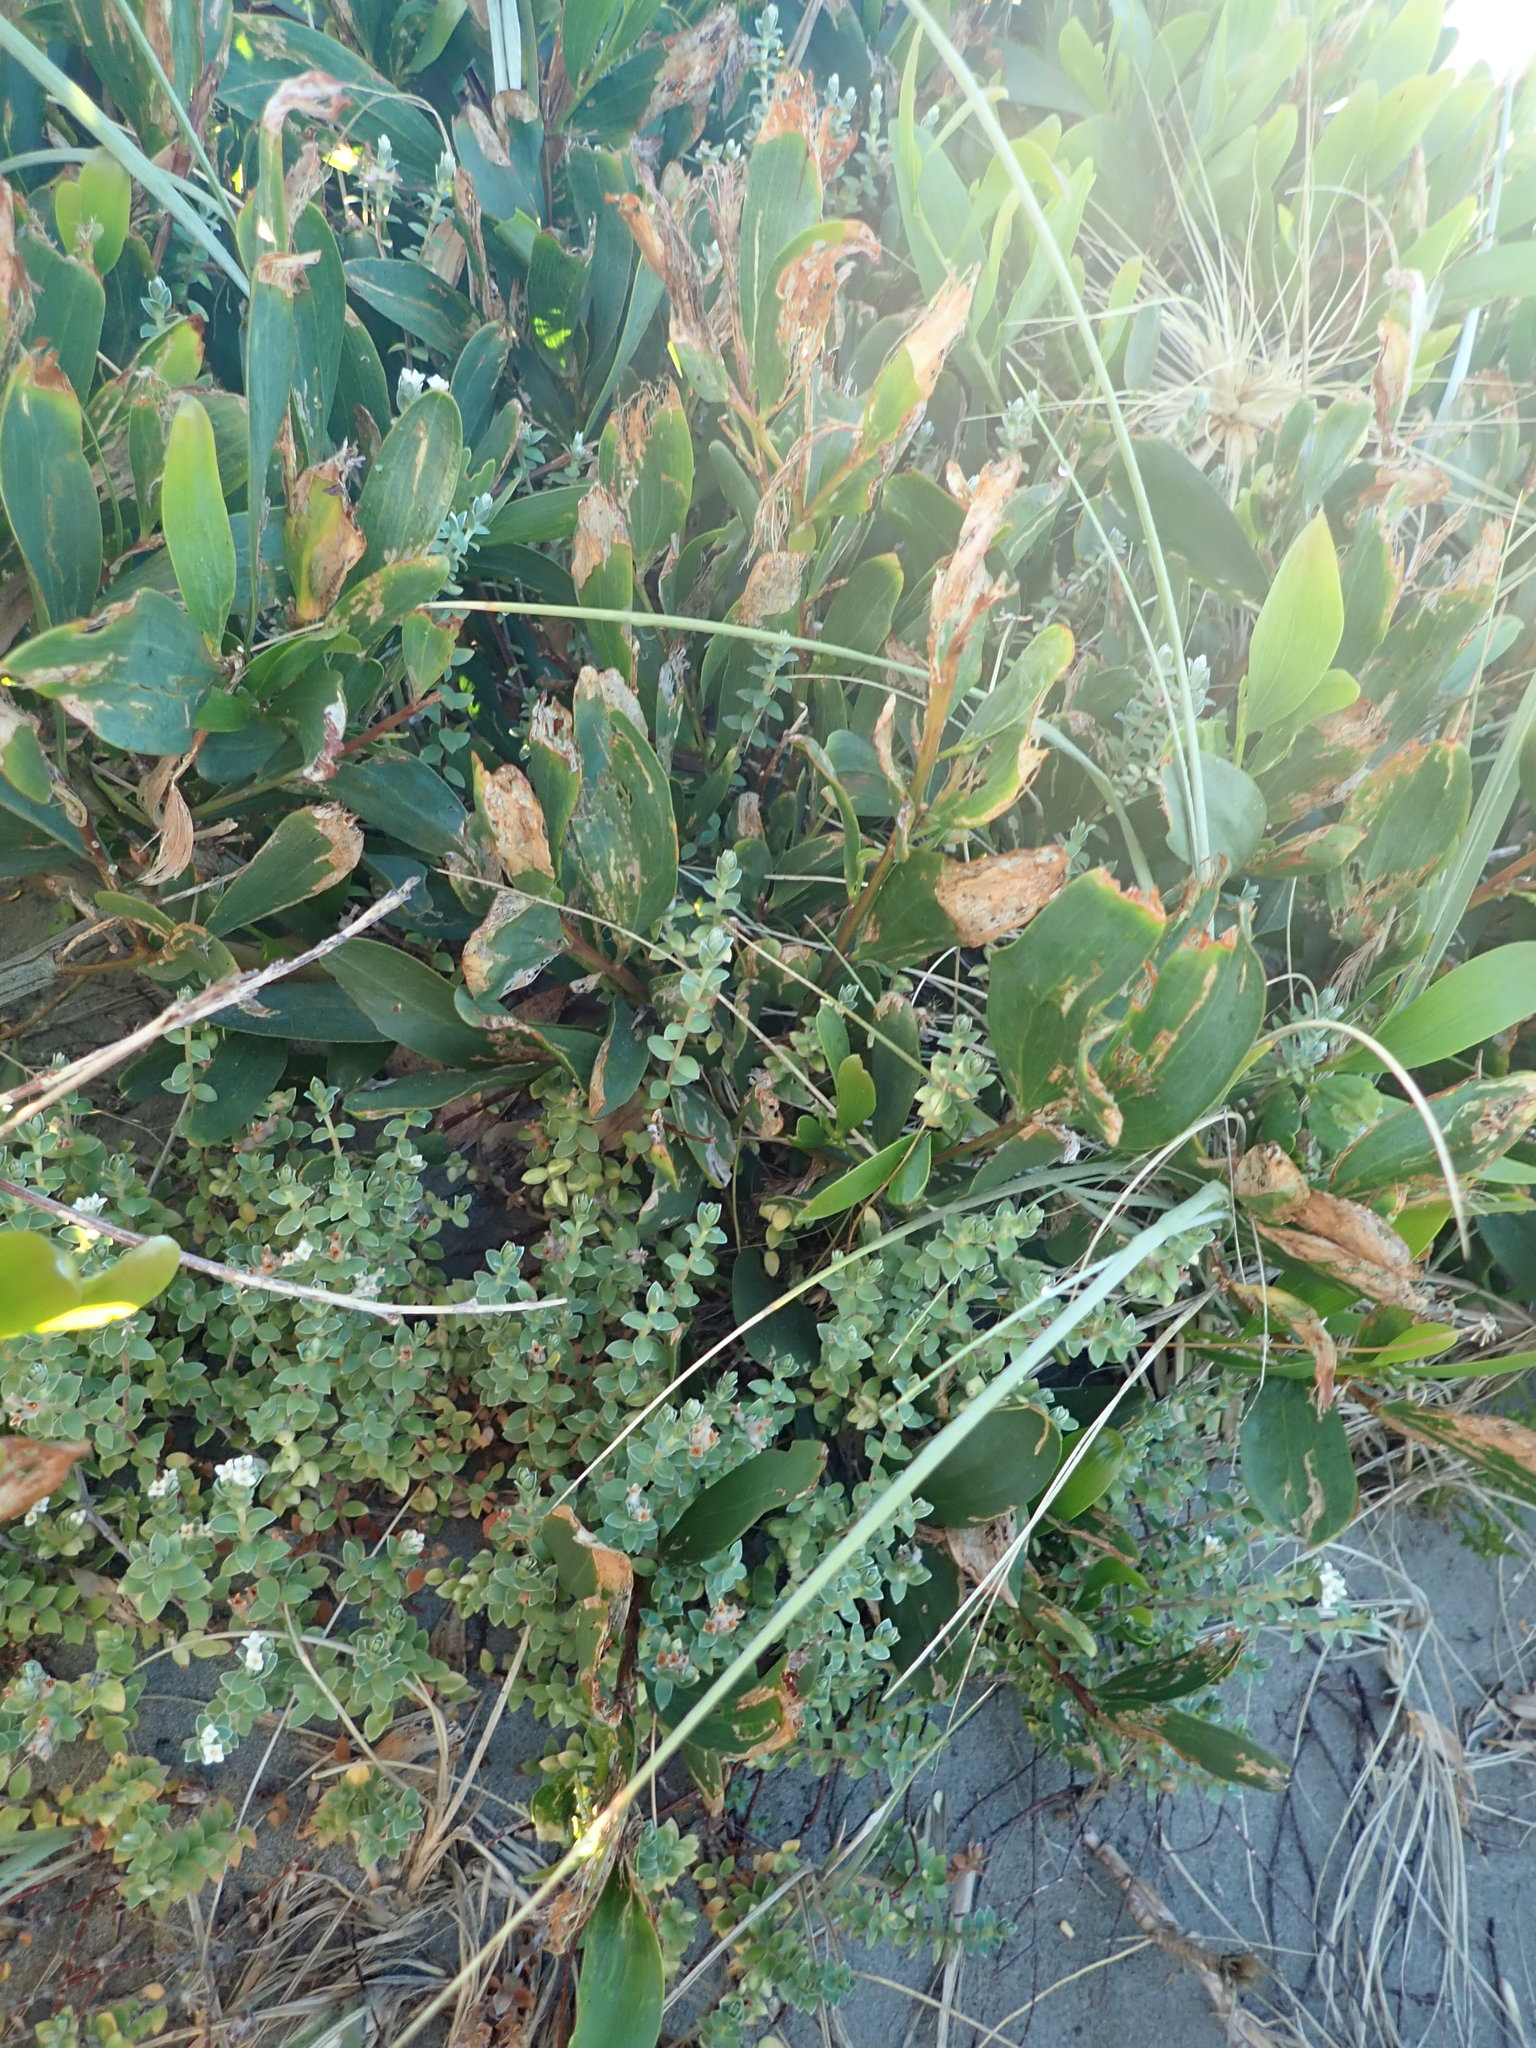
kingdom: Plantae
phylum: Tracheophyta
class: Magnoliopsida
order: Fabales
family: Fabaceae
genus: Acacia
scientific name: Acacia longifolia
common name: Sydney golden wattle
